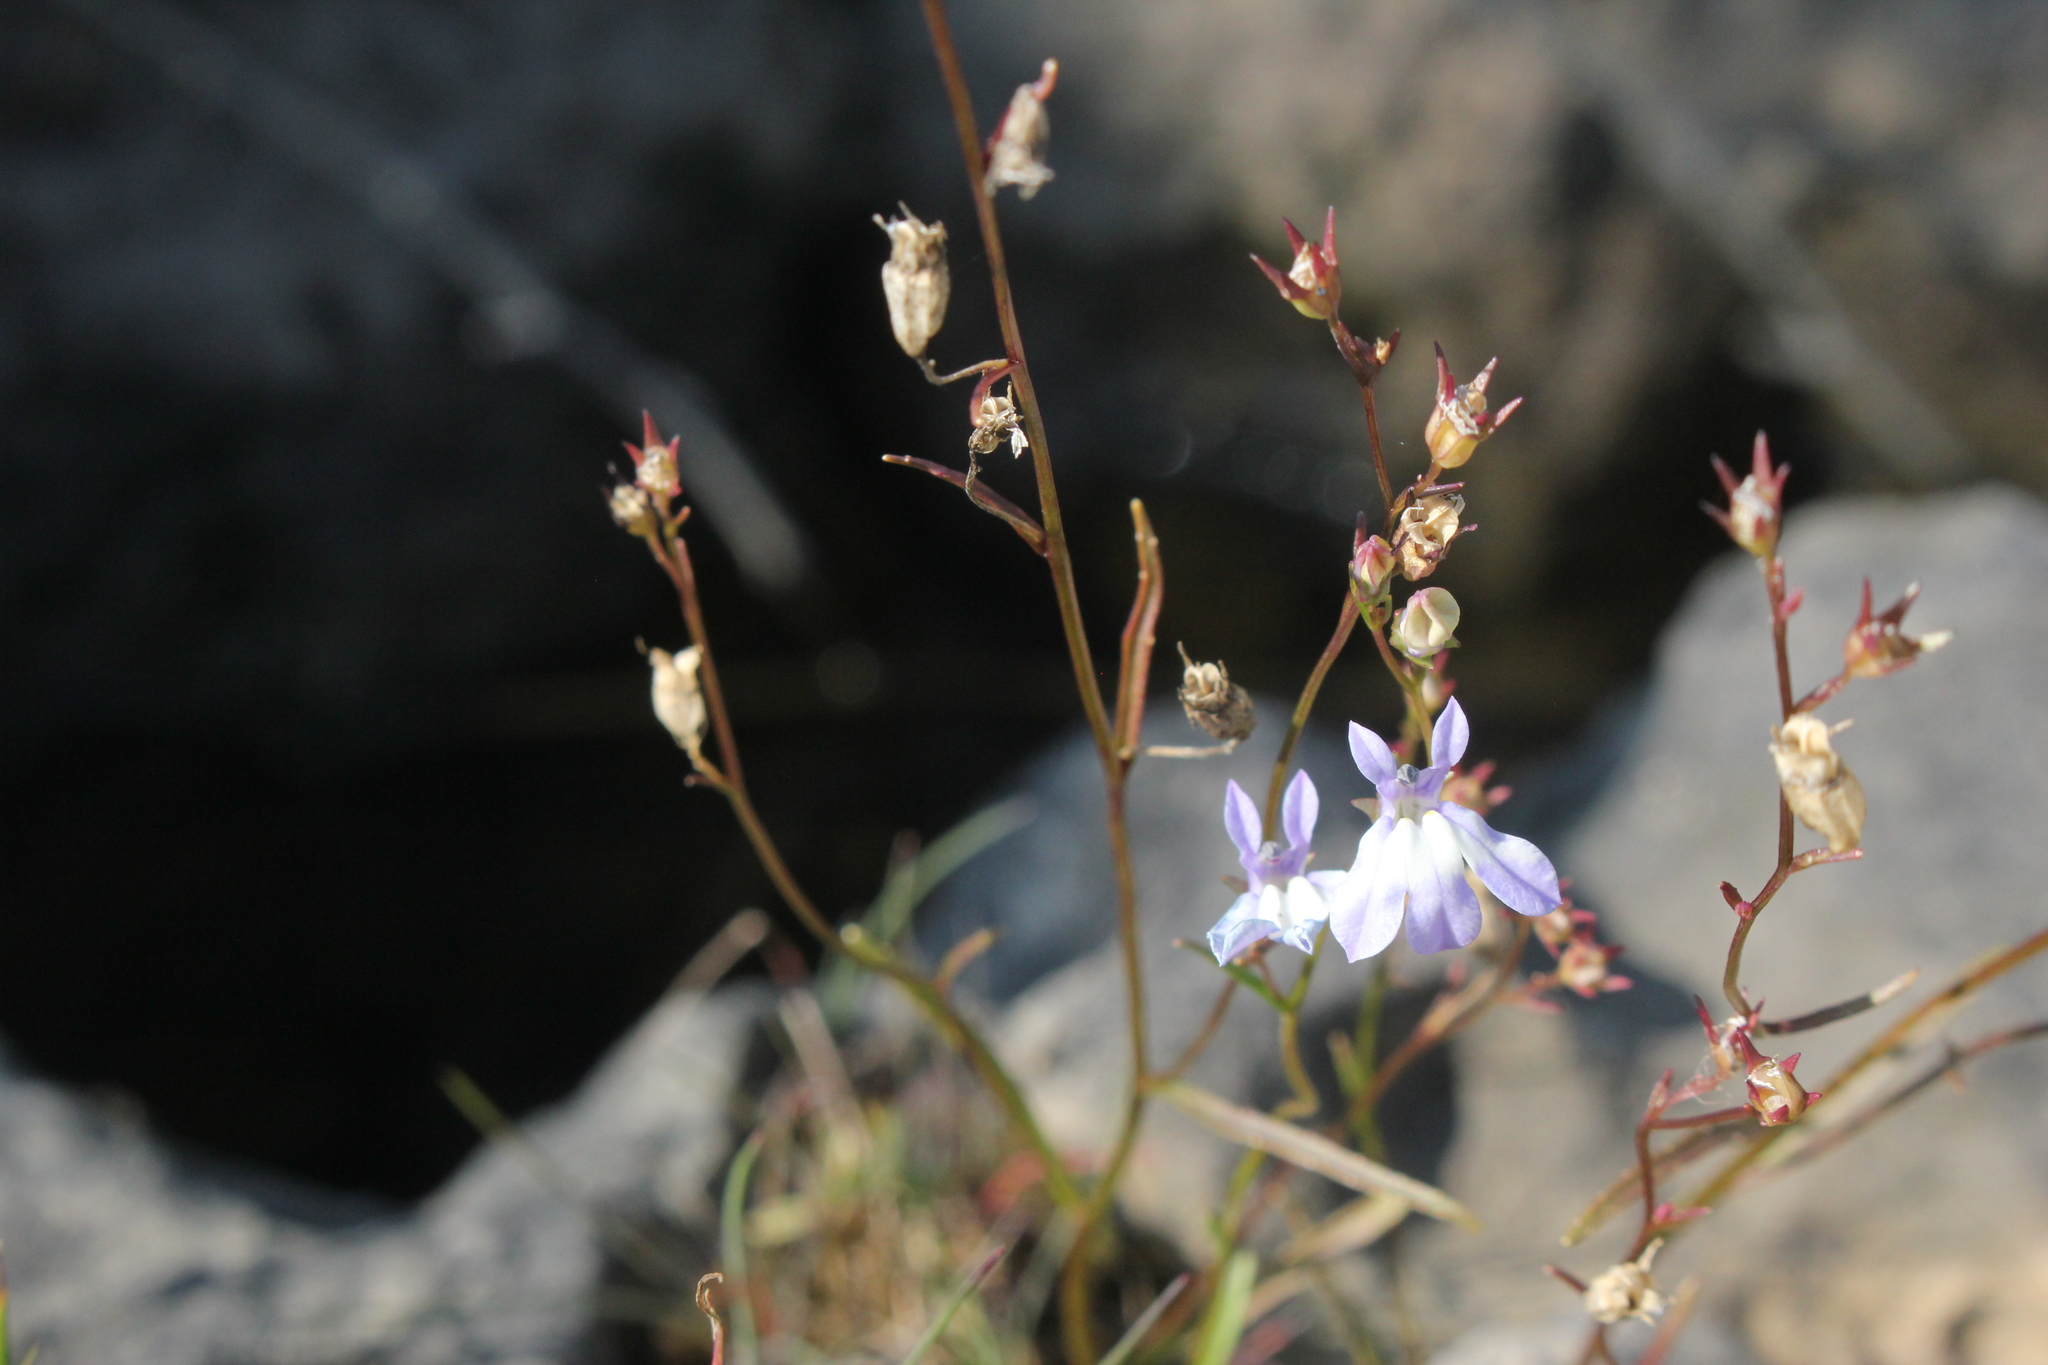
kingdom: Plantae
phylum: Tracheophyta
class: Magnoliopsida
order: Asterales
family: Campanulaceae
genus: Lobelia
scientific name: Lobelia kalmii
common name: Kalm's lobelia
